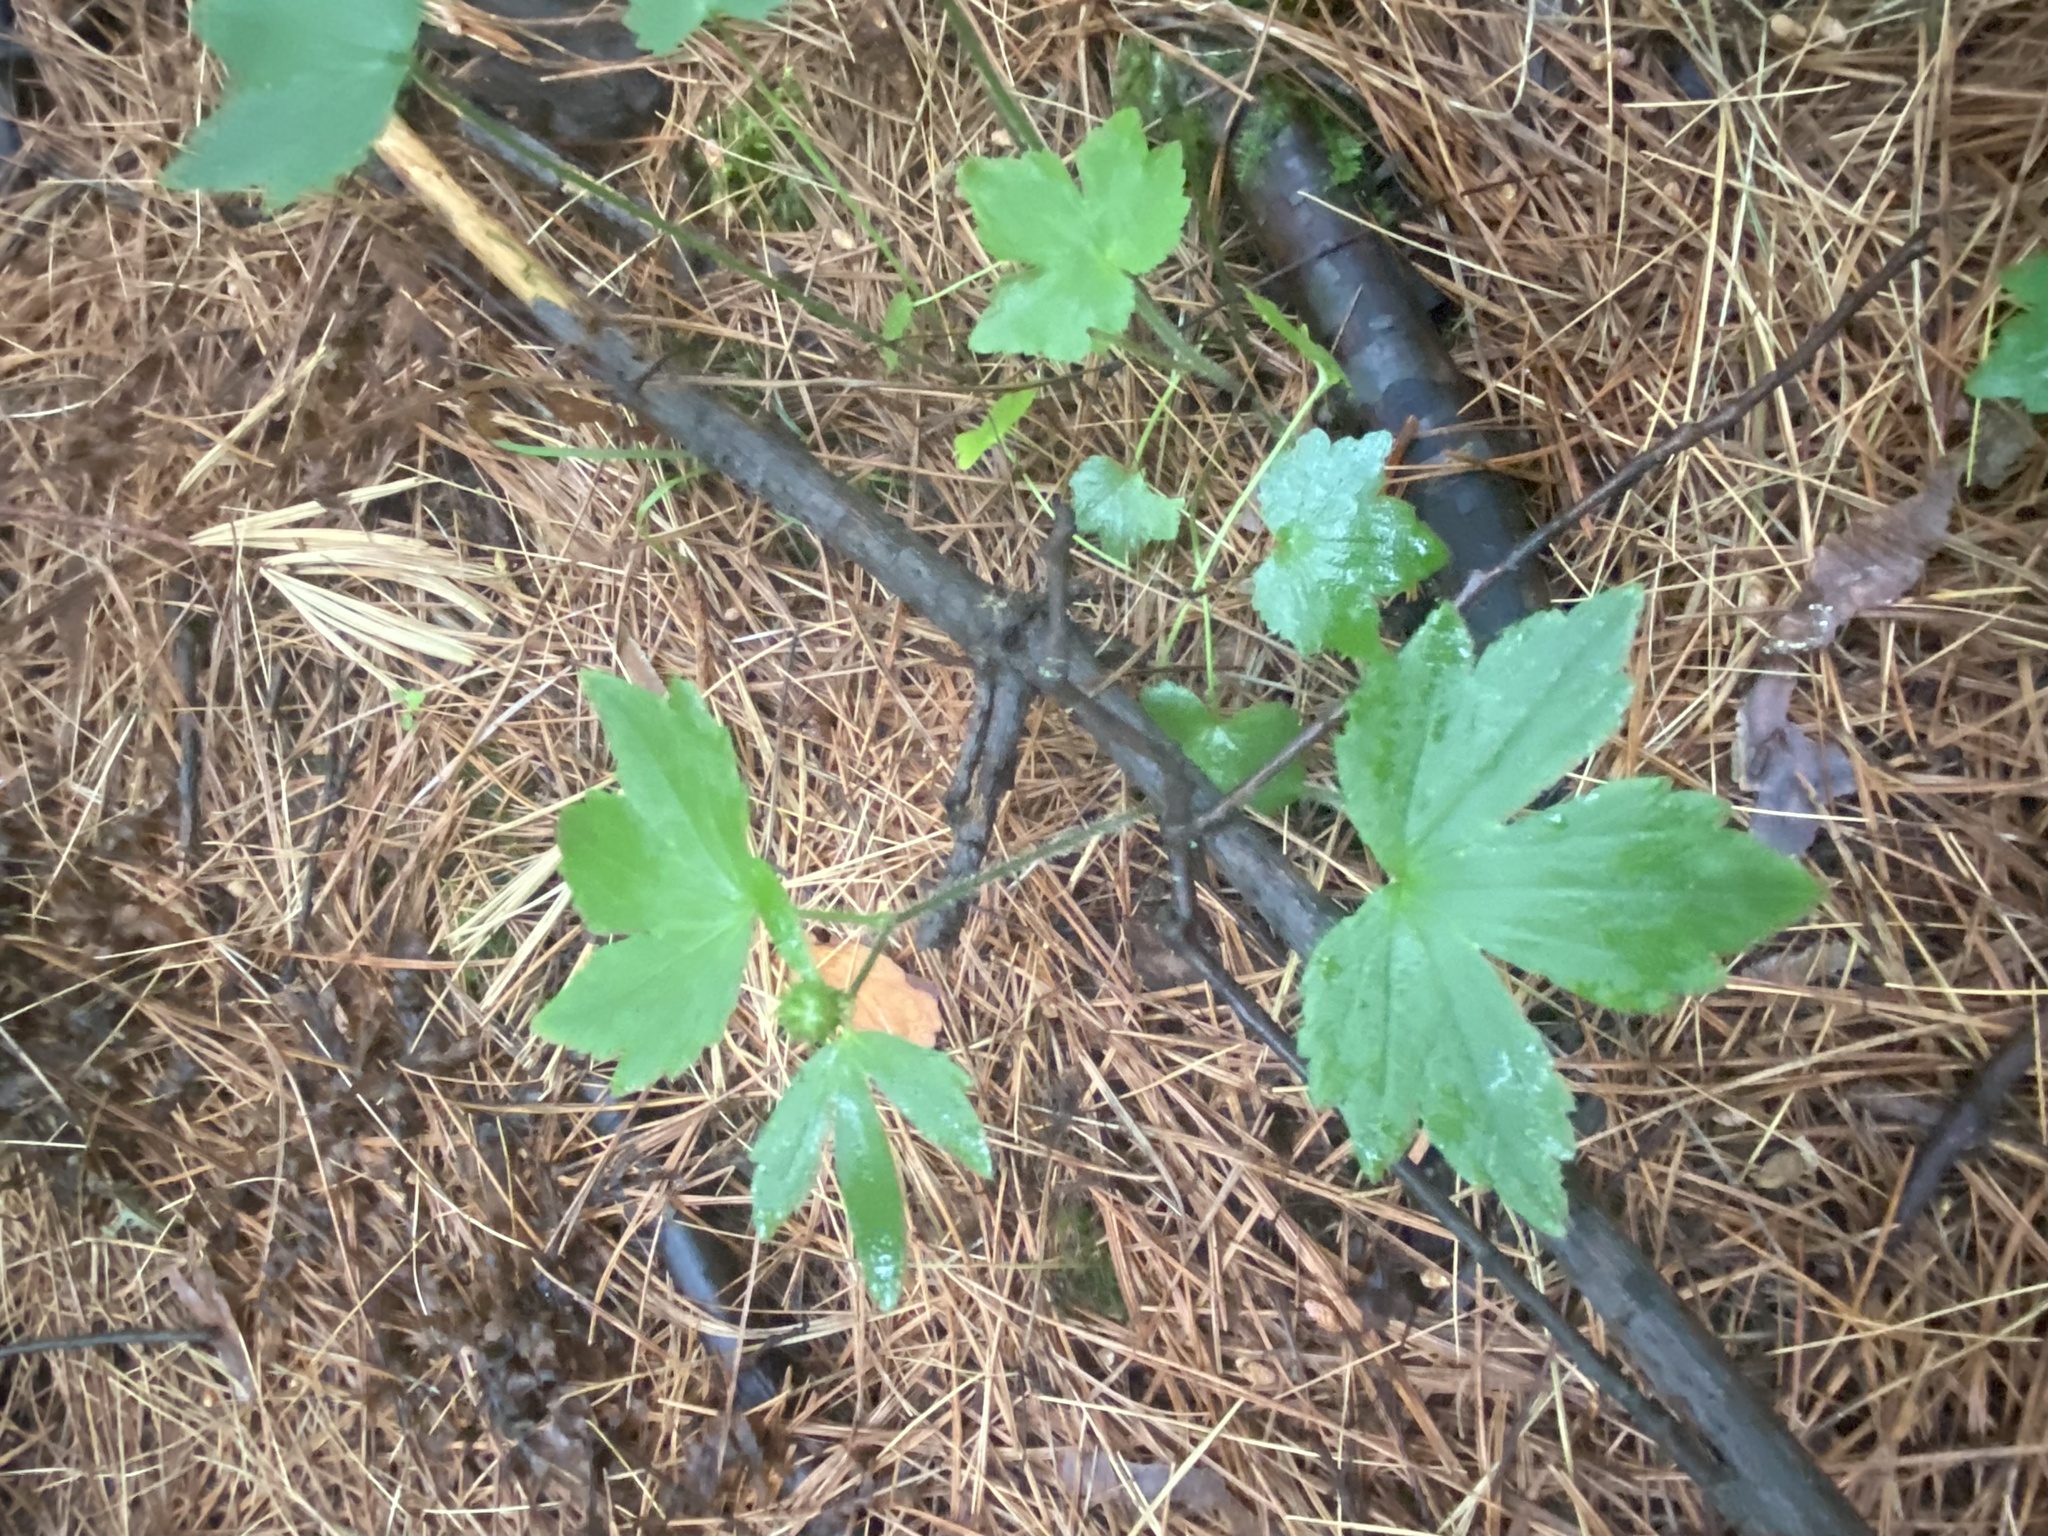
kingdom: Plantae
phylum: Tracheophyta
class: Magnoliopsida
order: Ranunculales
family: Ranunculaceae
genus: Ranunculus
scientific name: Ranunculus recurvatus
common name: Blisterwort
